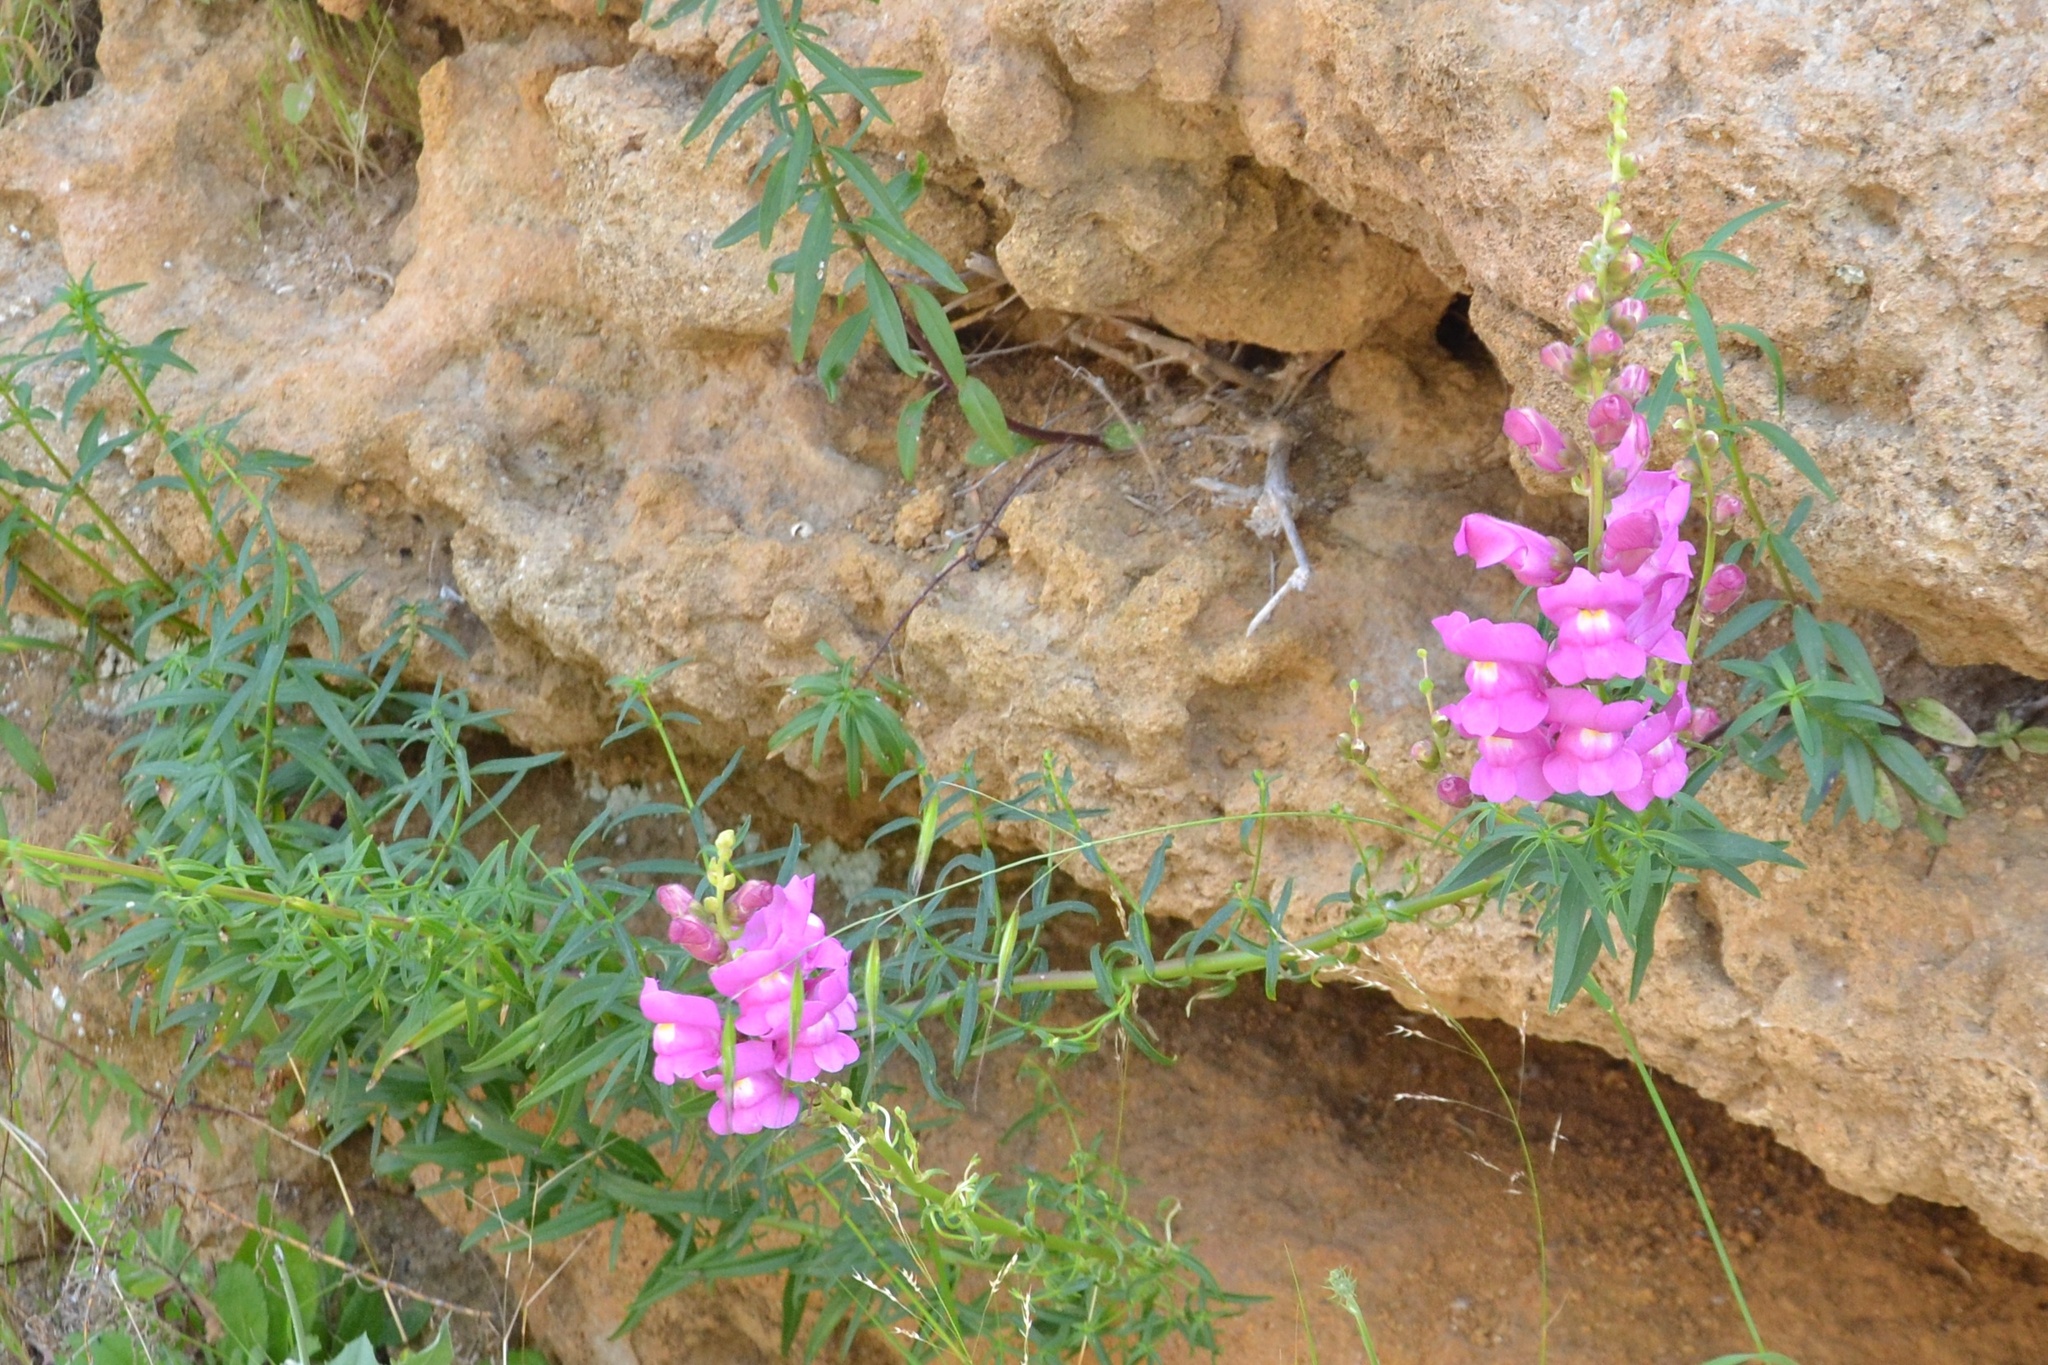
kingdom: Plantae
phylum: Tracheophyta
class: Magnoliopsida
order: Lamiales
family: Plantaginaceae
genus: Antirrhinum
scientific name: Antirrhinum tortuosum
